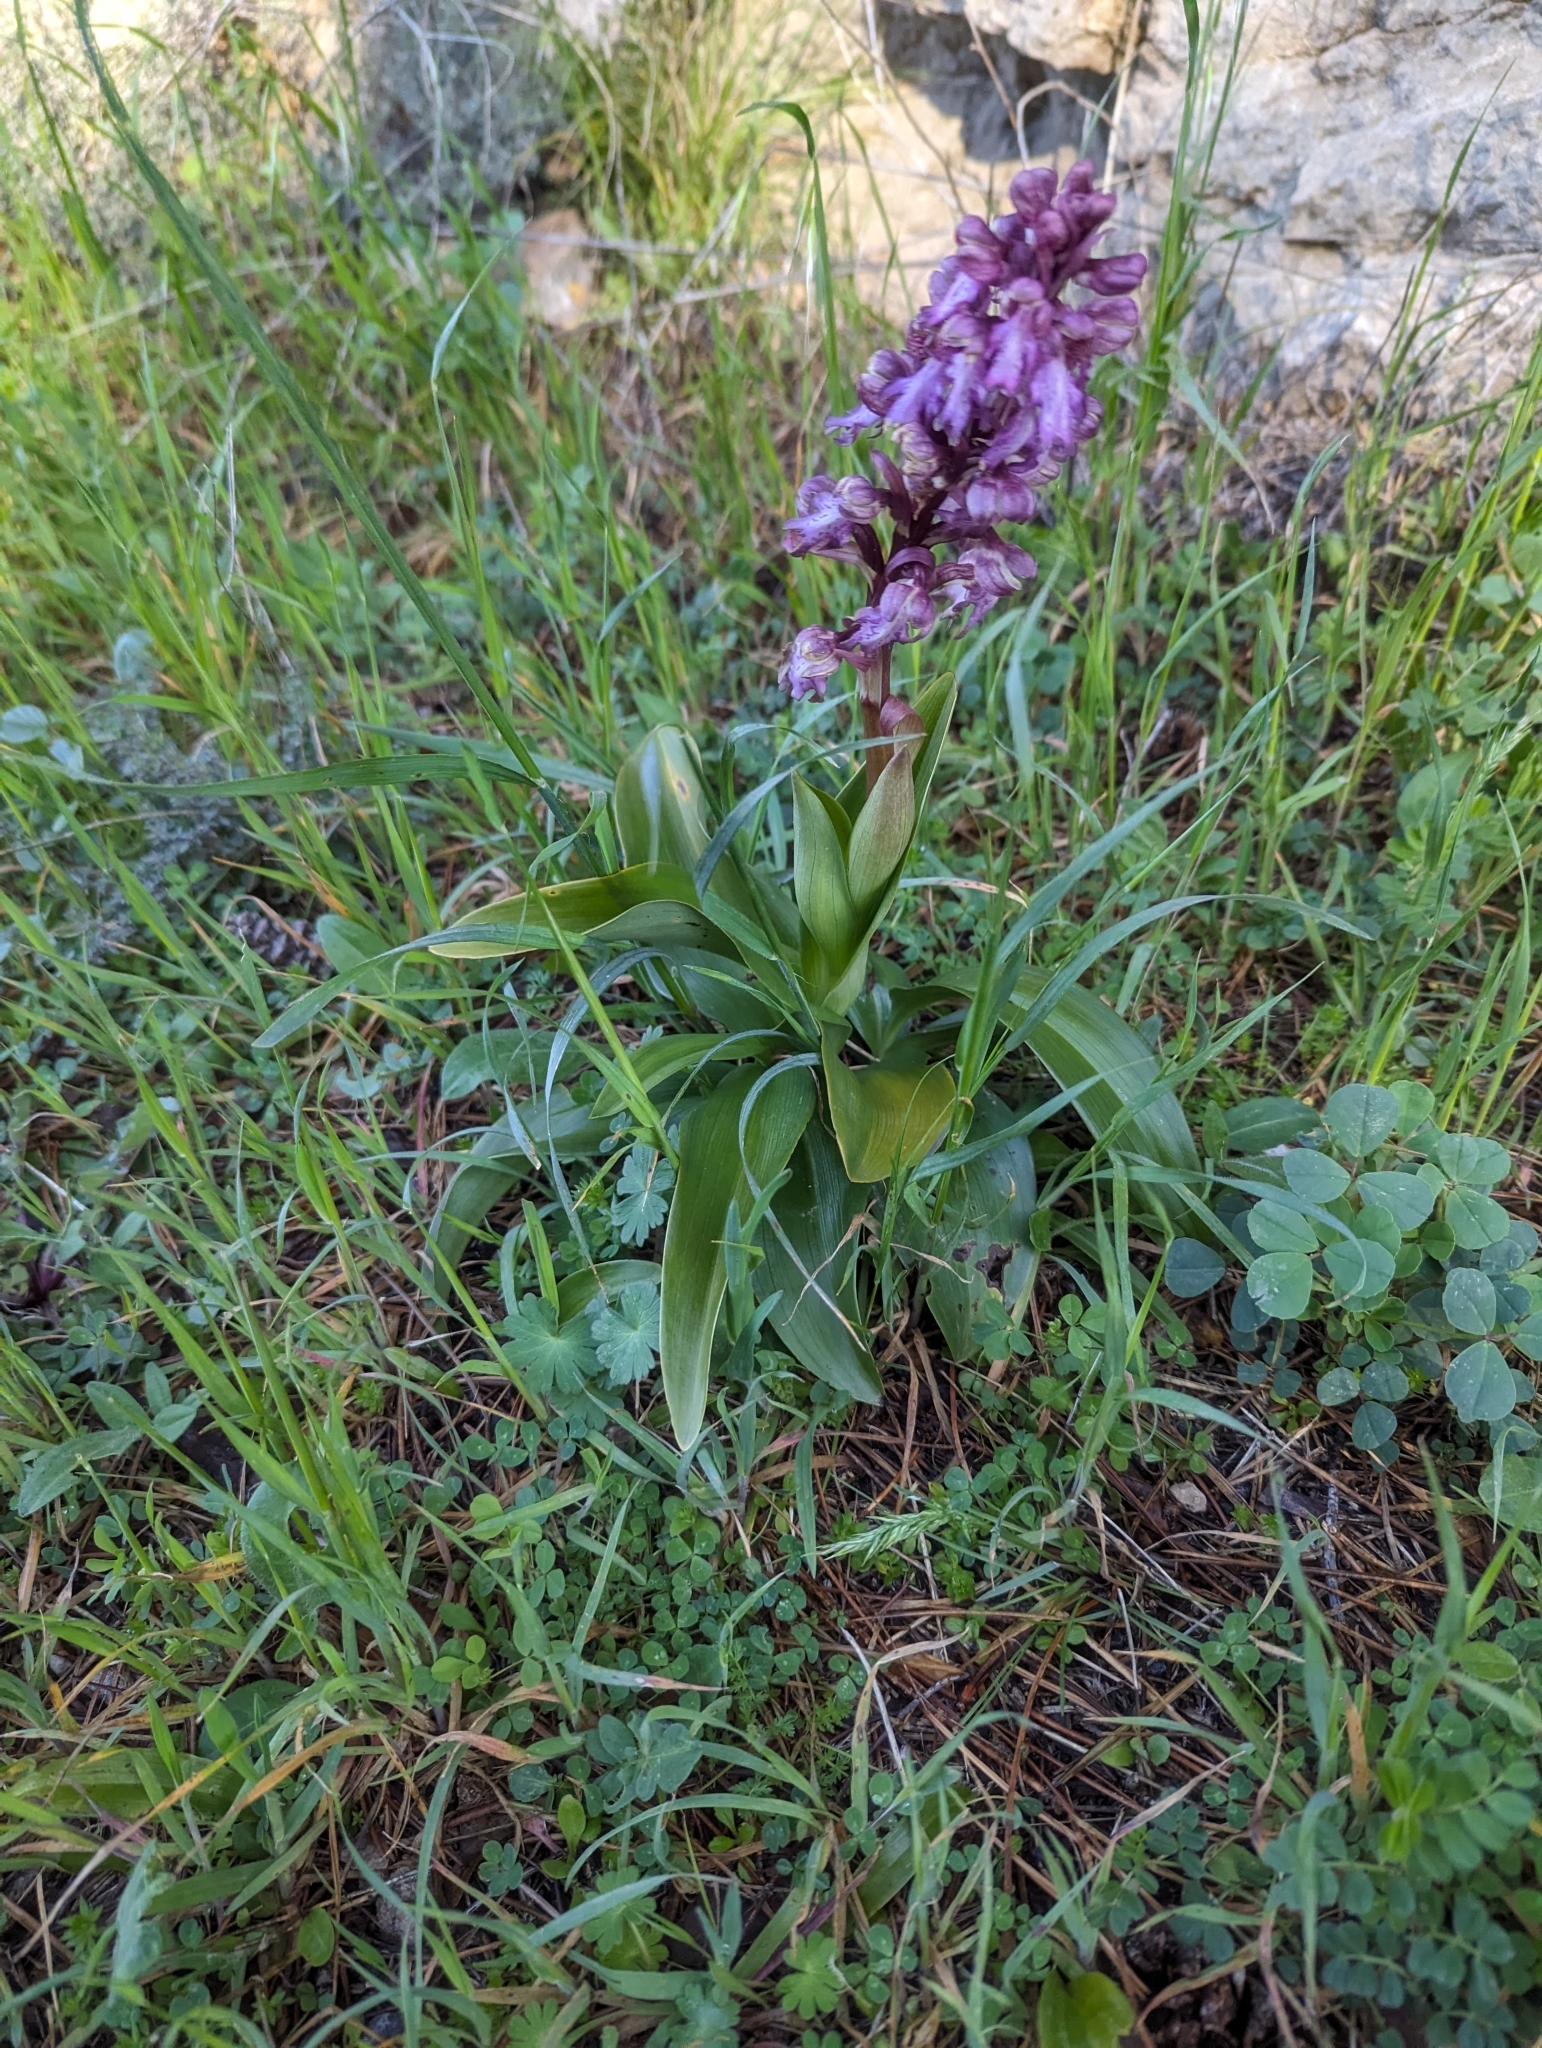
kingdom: Plantae
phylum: Tracheophyta
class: Liliopsida
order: Asparagales
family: Orchidaceae
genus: Himantoglossum
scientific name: Himantoglossum robertianum
